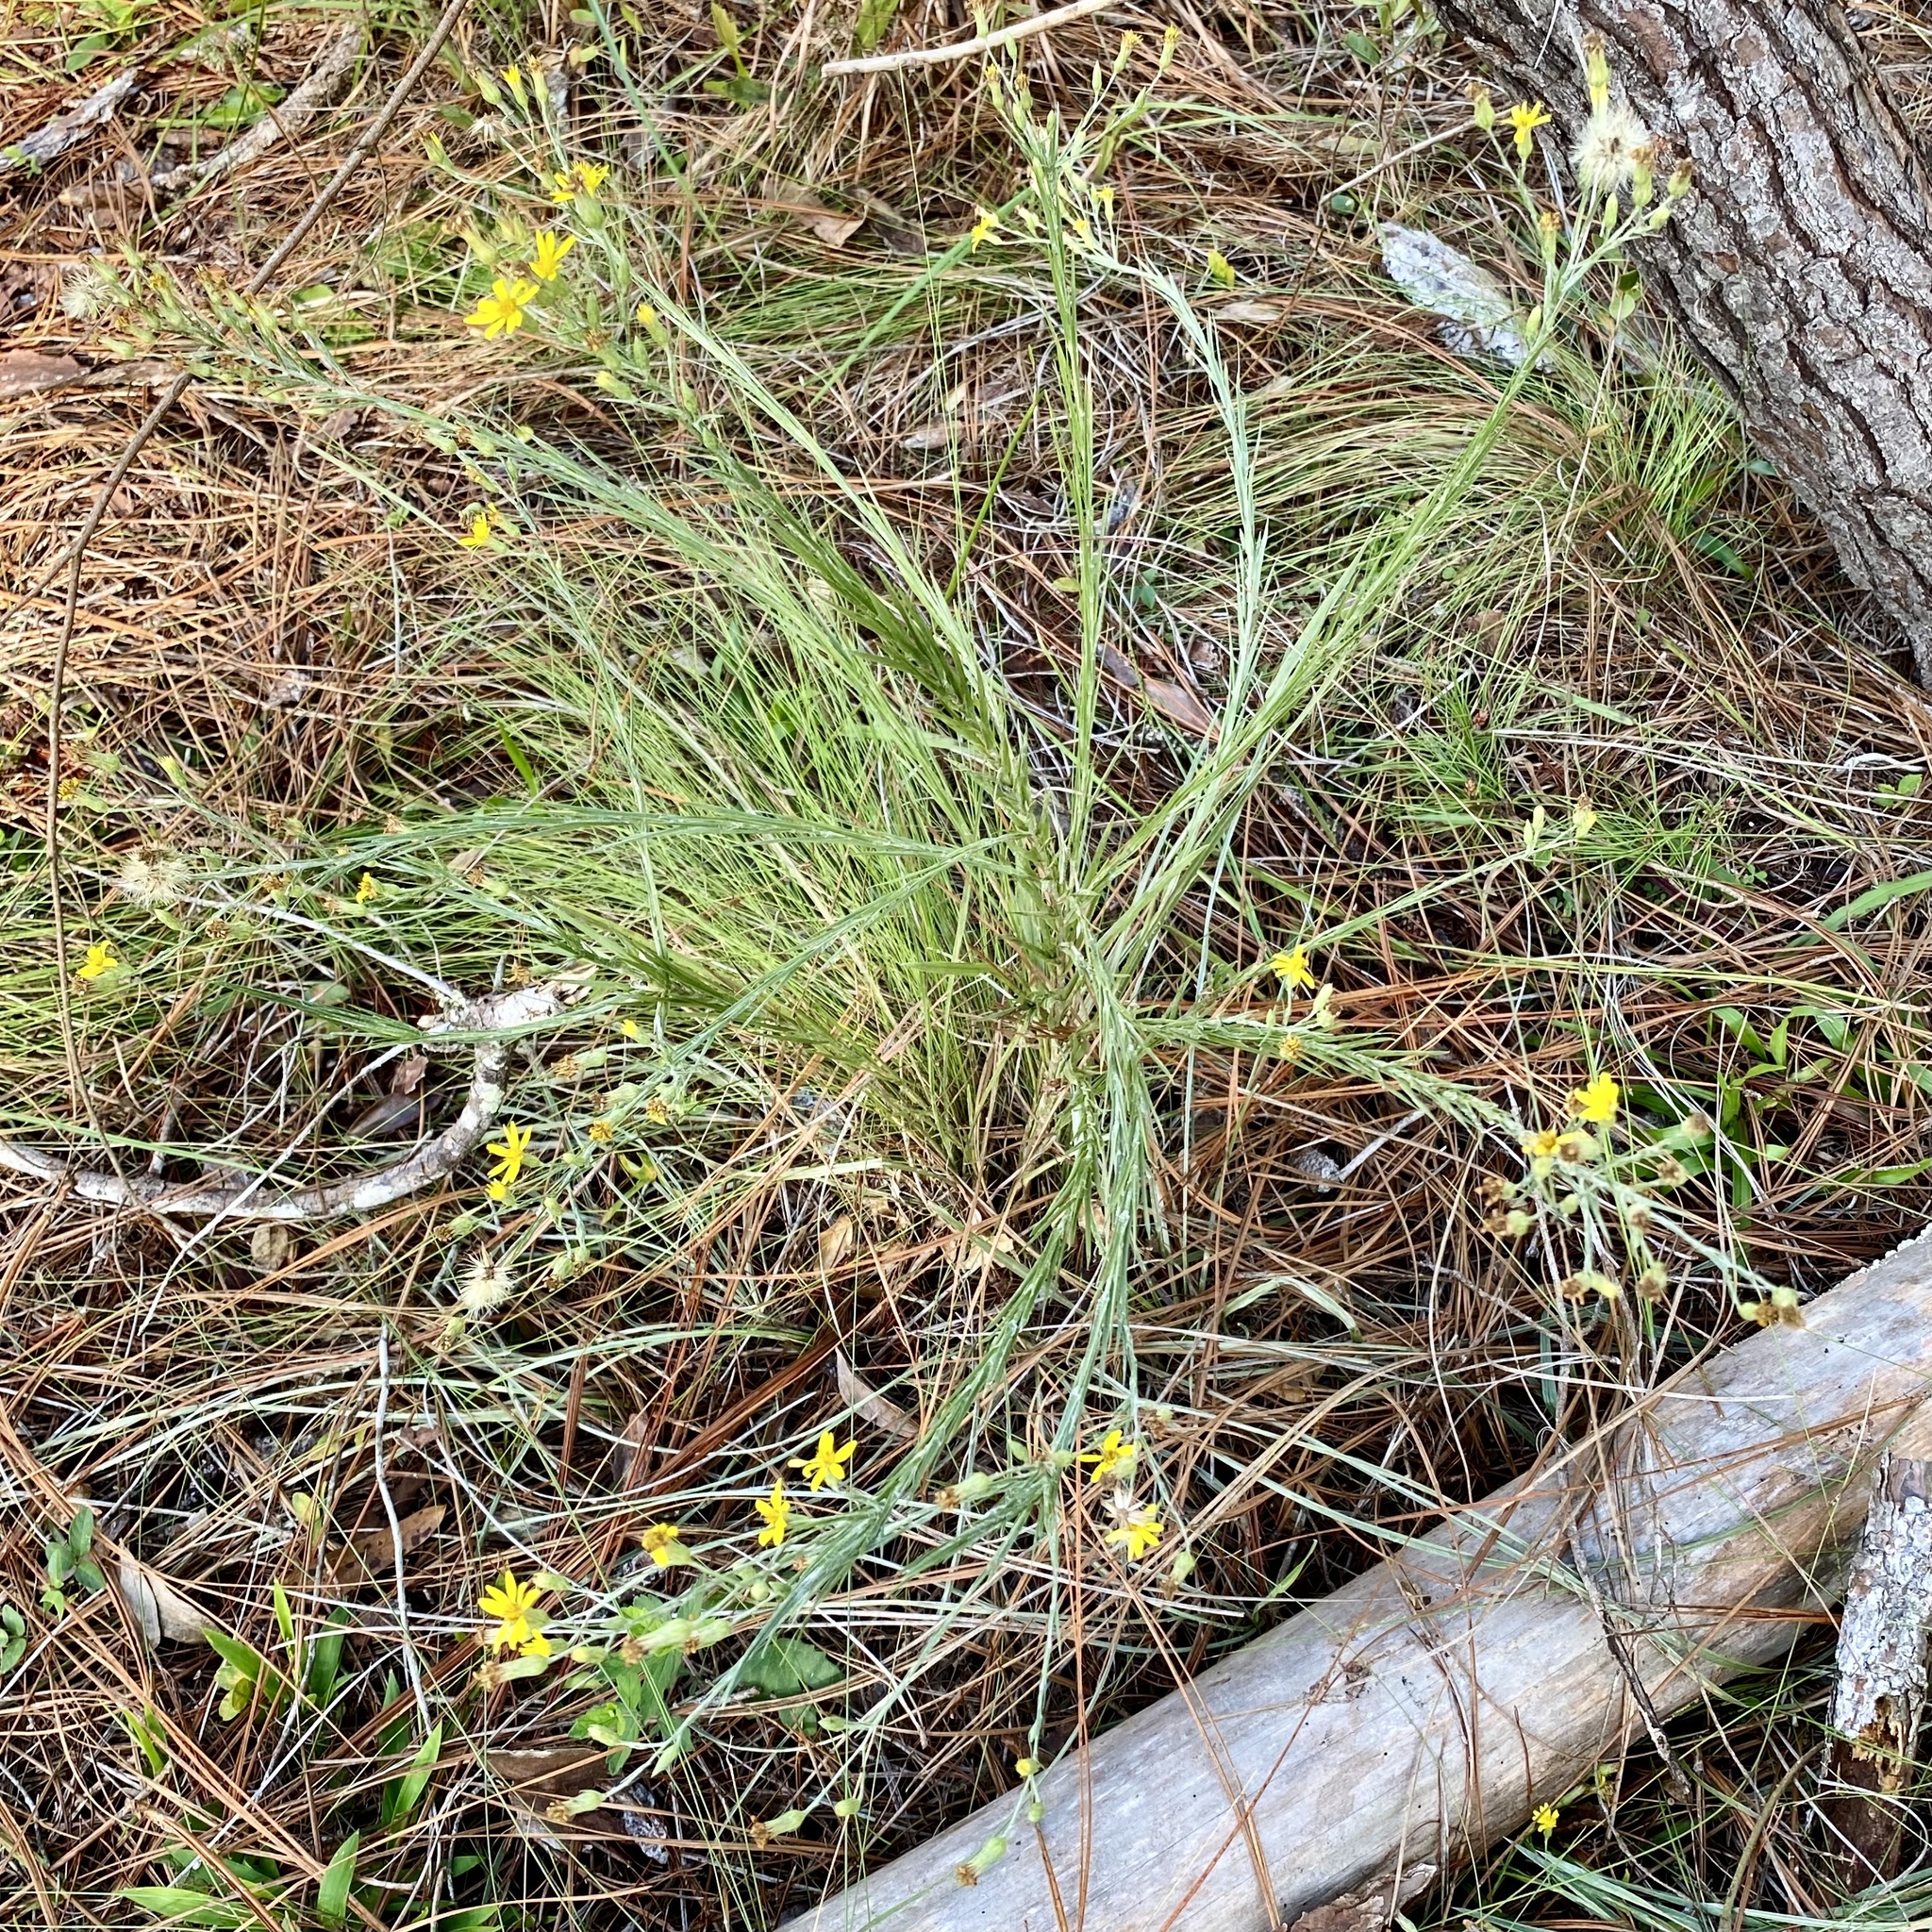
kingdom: Plantae
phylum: Tracheophyta
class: Magnoliopsida
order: Asterales
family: Asteraceae
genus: Pityopsis
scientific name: Pityopsis graminifolia
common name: Grass-leaf golden-aster
